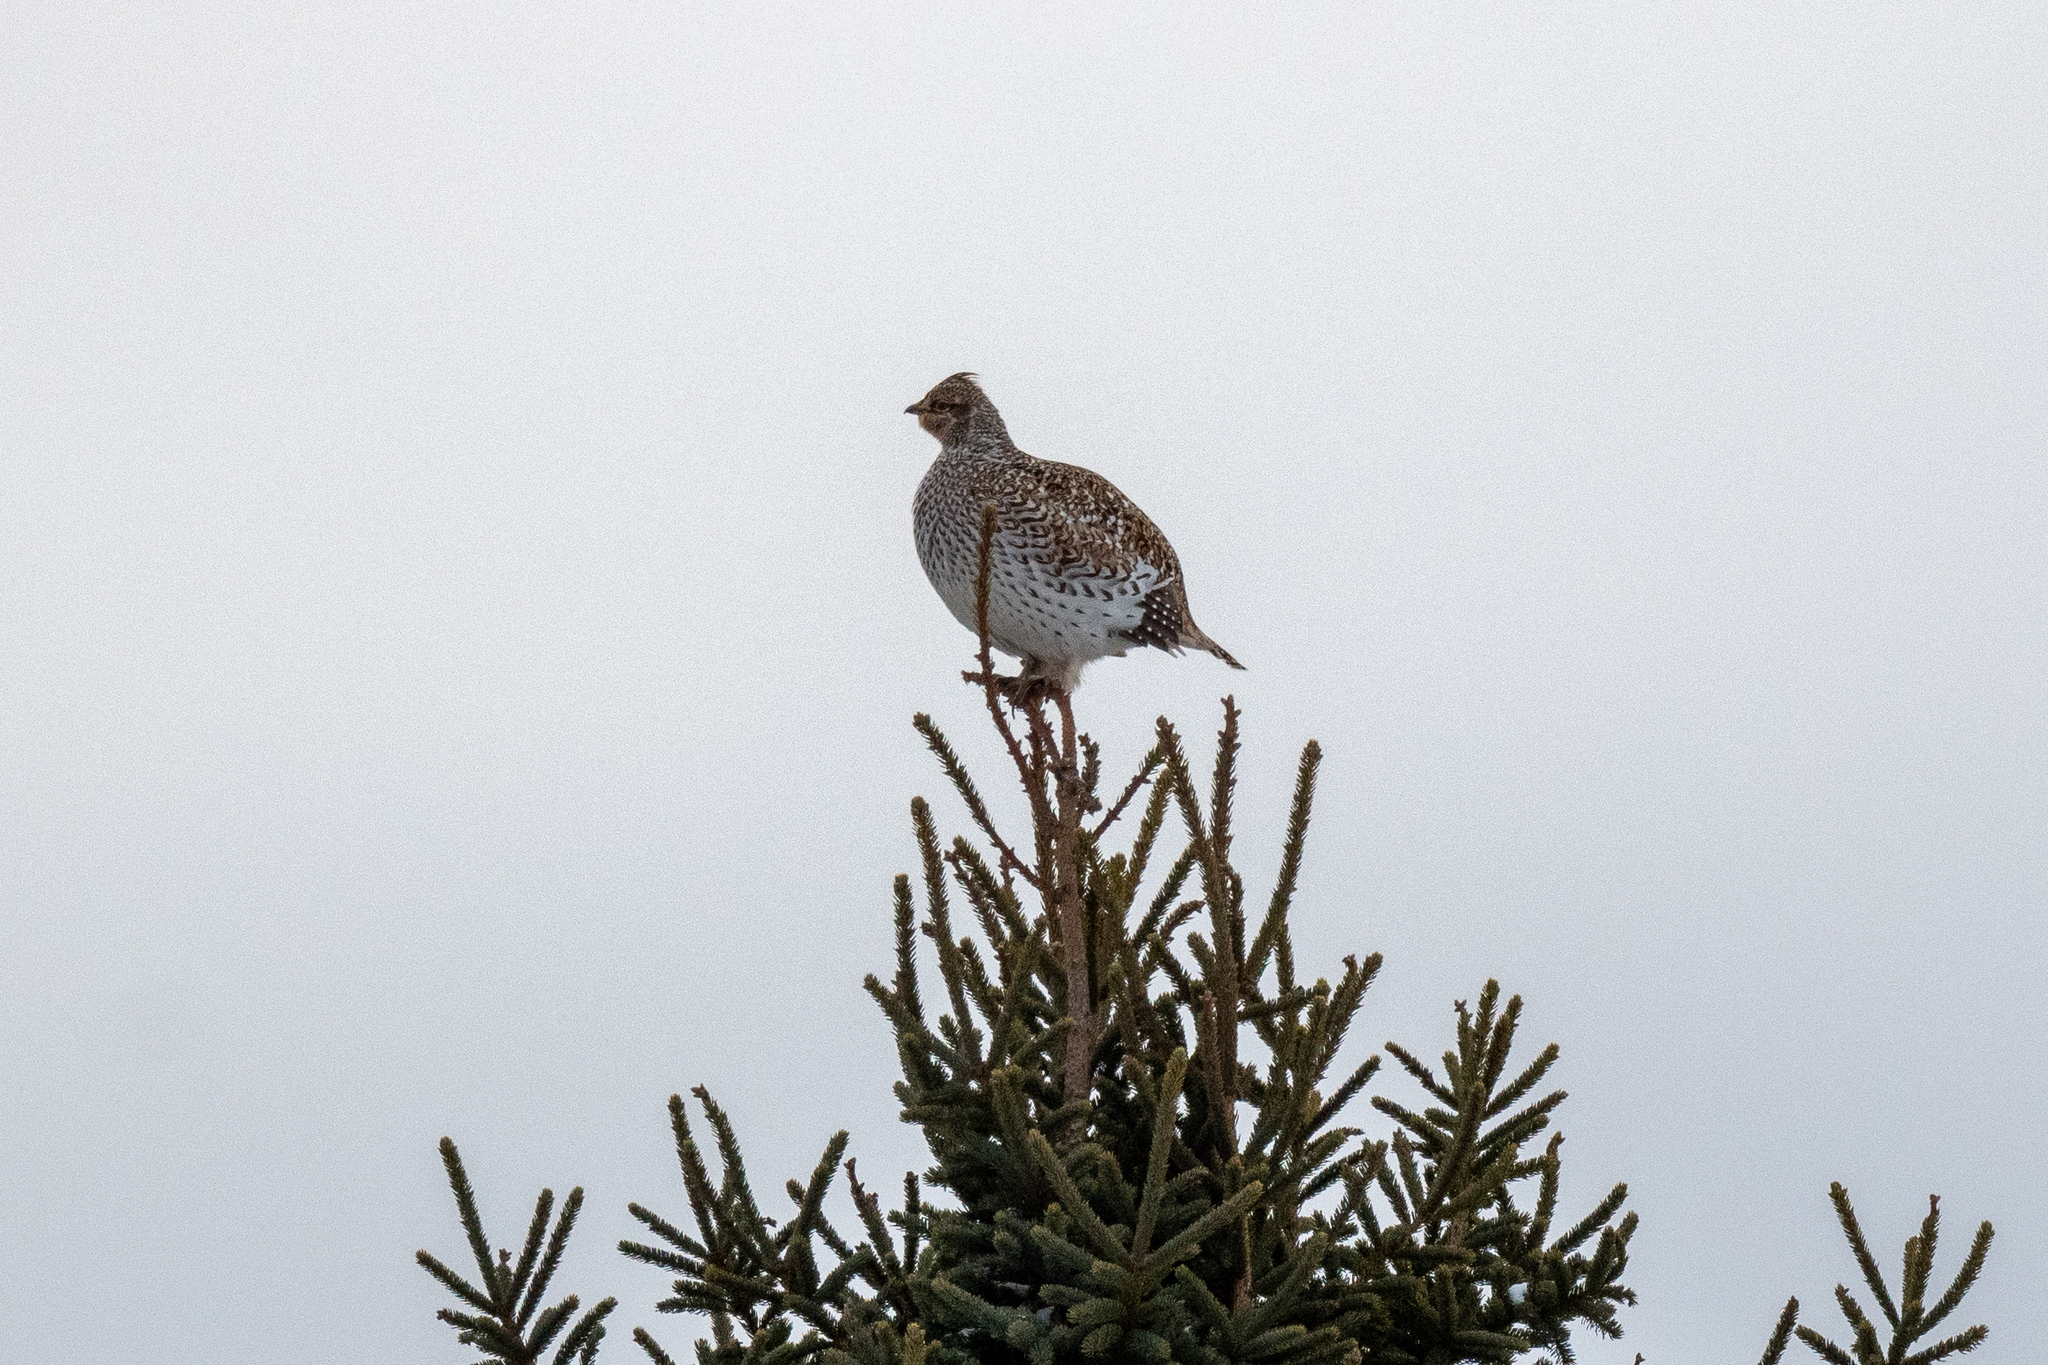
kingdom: Animalia
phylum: Chordata
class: Aves
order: Galliformes
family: Phasianidae
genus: Tympanuchus
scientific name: Tympanuchus phasianellus
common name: Sharp-tailed grouse
